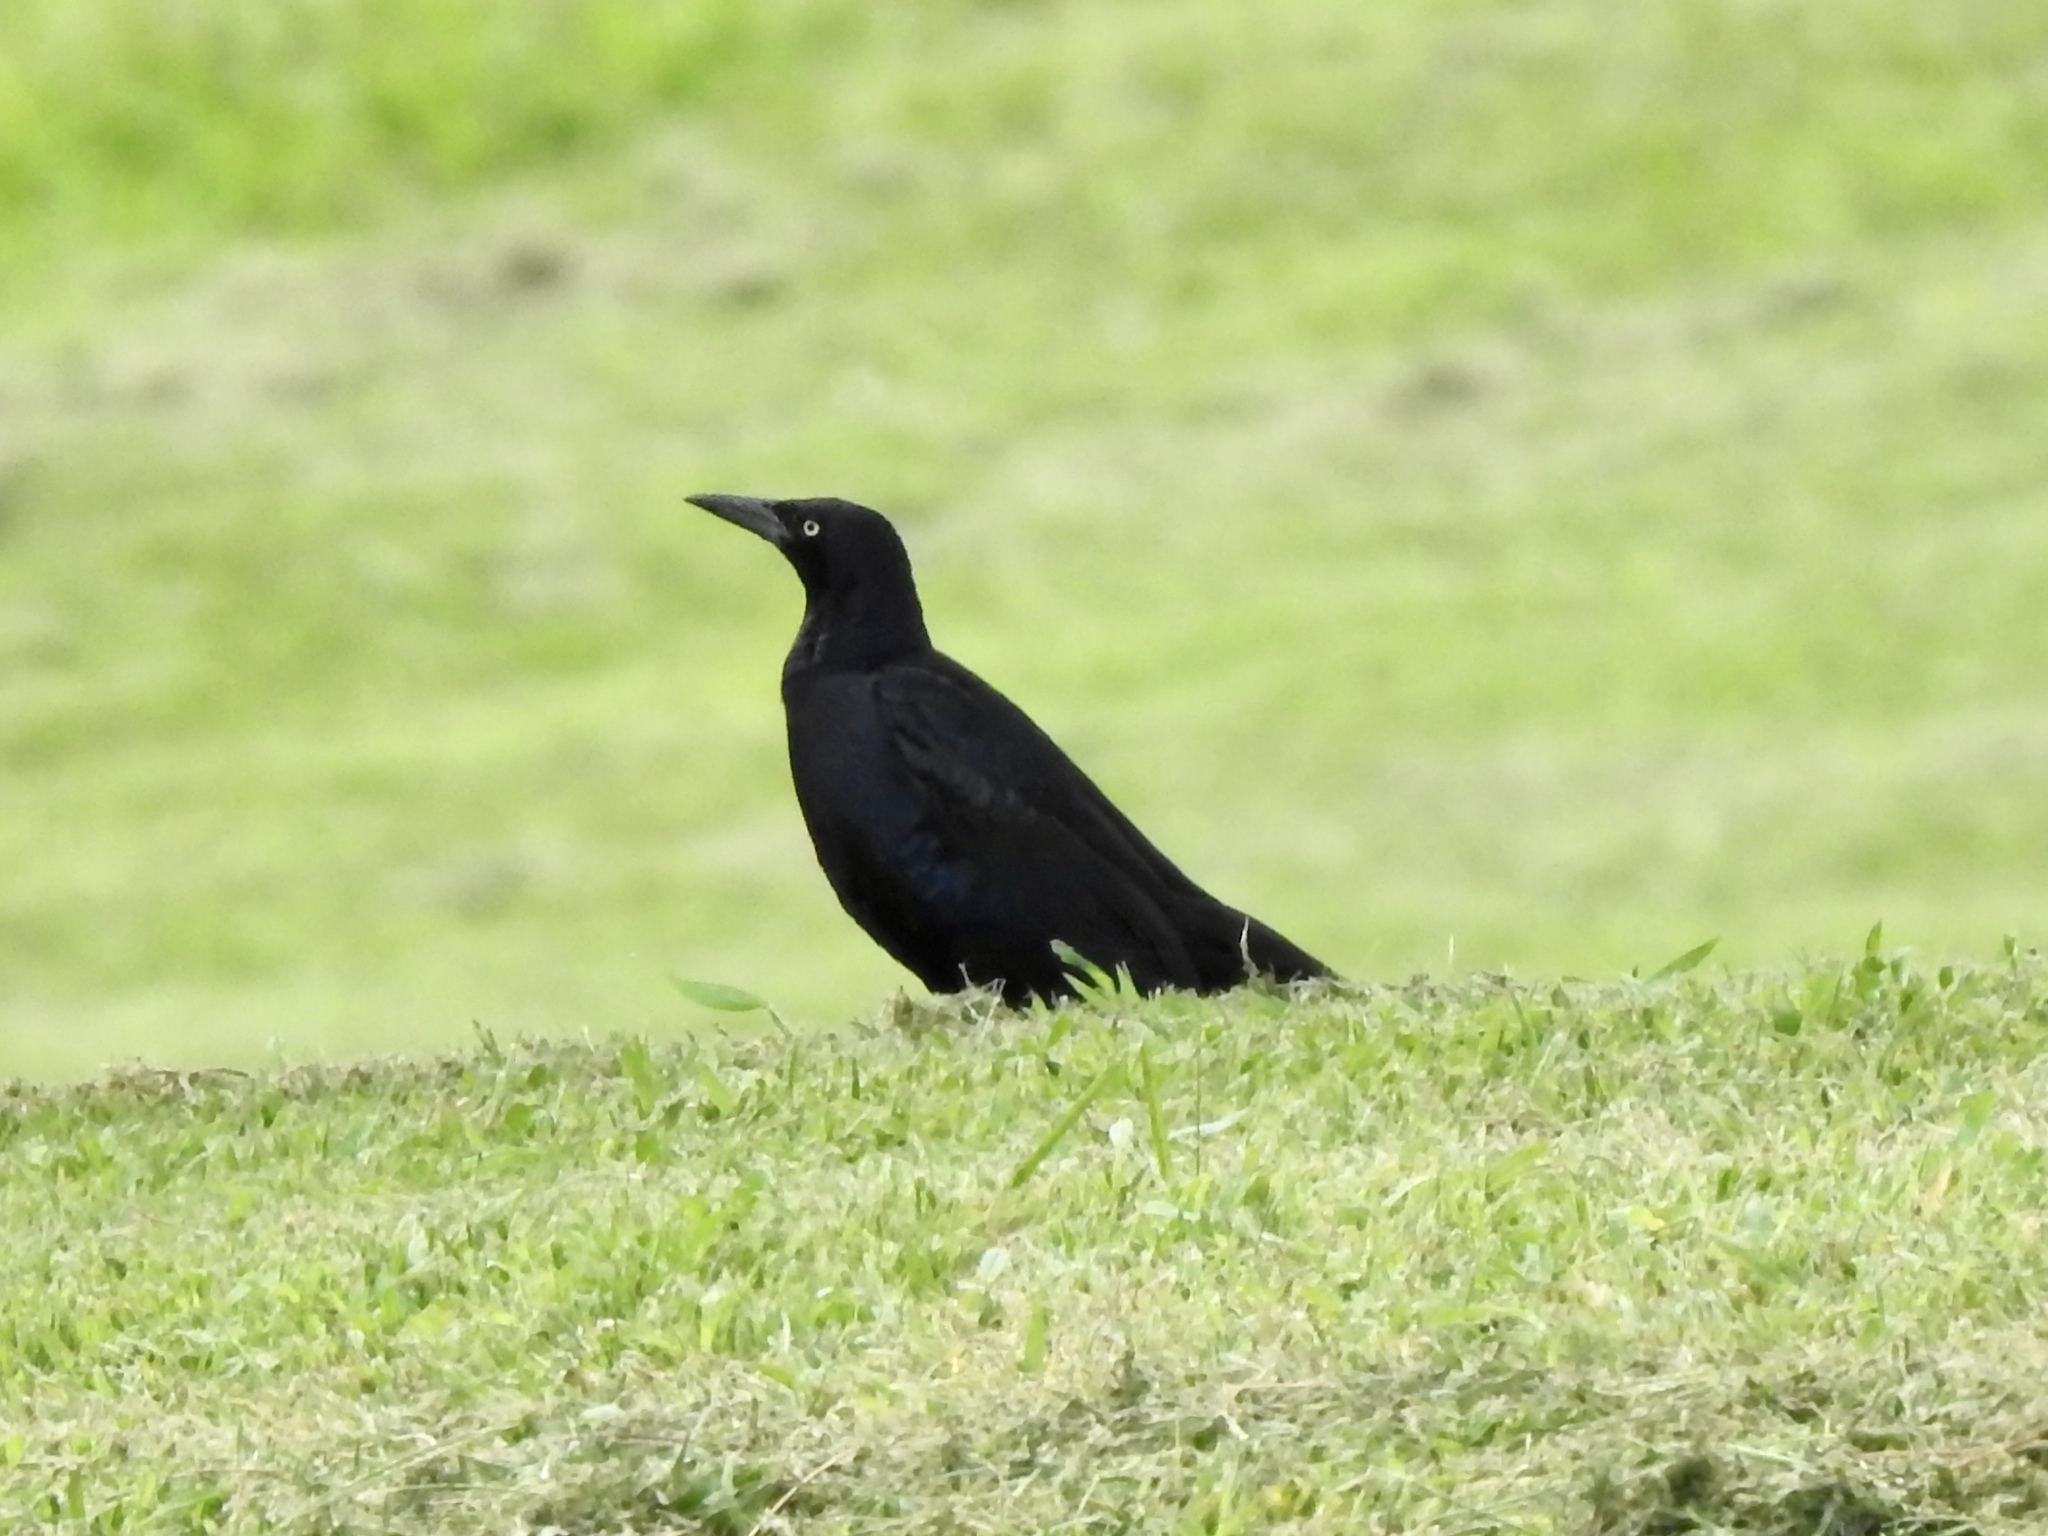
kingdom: Animalia
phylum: Chordata
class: Aves
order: Passeriformes
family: Icteridae
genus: Quiscalus
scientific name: Quiscalus mexicanus
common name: Great-tailed grackle
